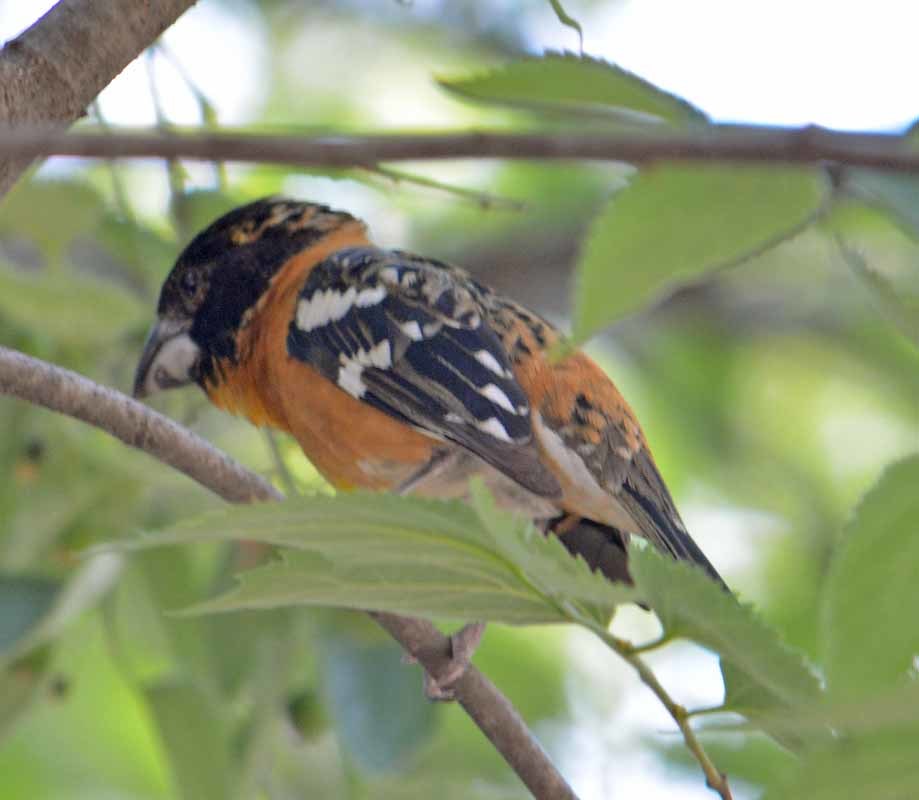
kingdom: Animalia
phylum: Chordata
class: Aves
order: Passeriformes
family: Cardinalidae
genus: Pheucticus
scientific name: Pheucticus melanocephalus
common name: Black-headed grosbeak
